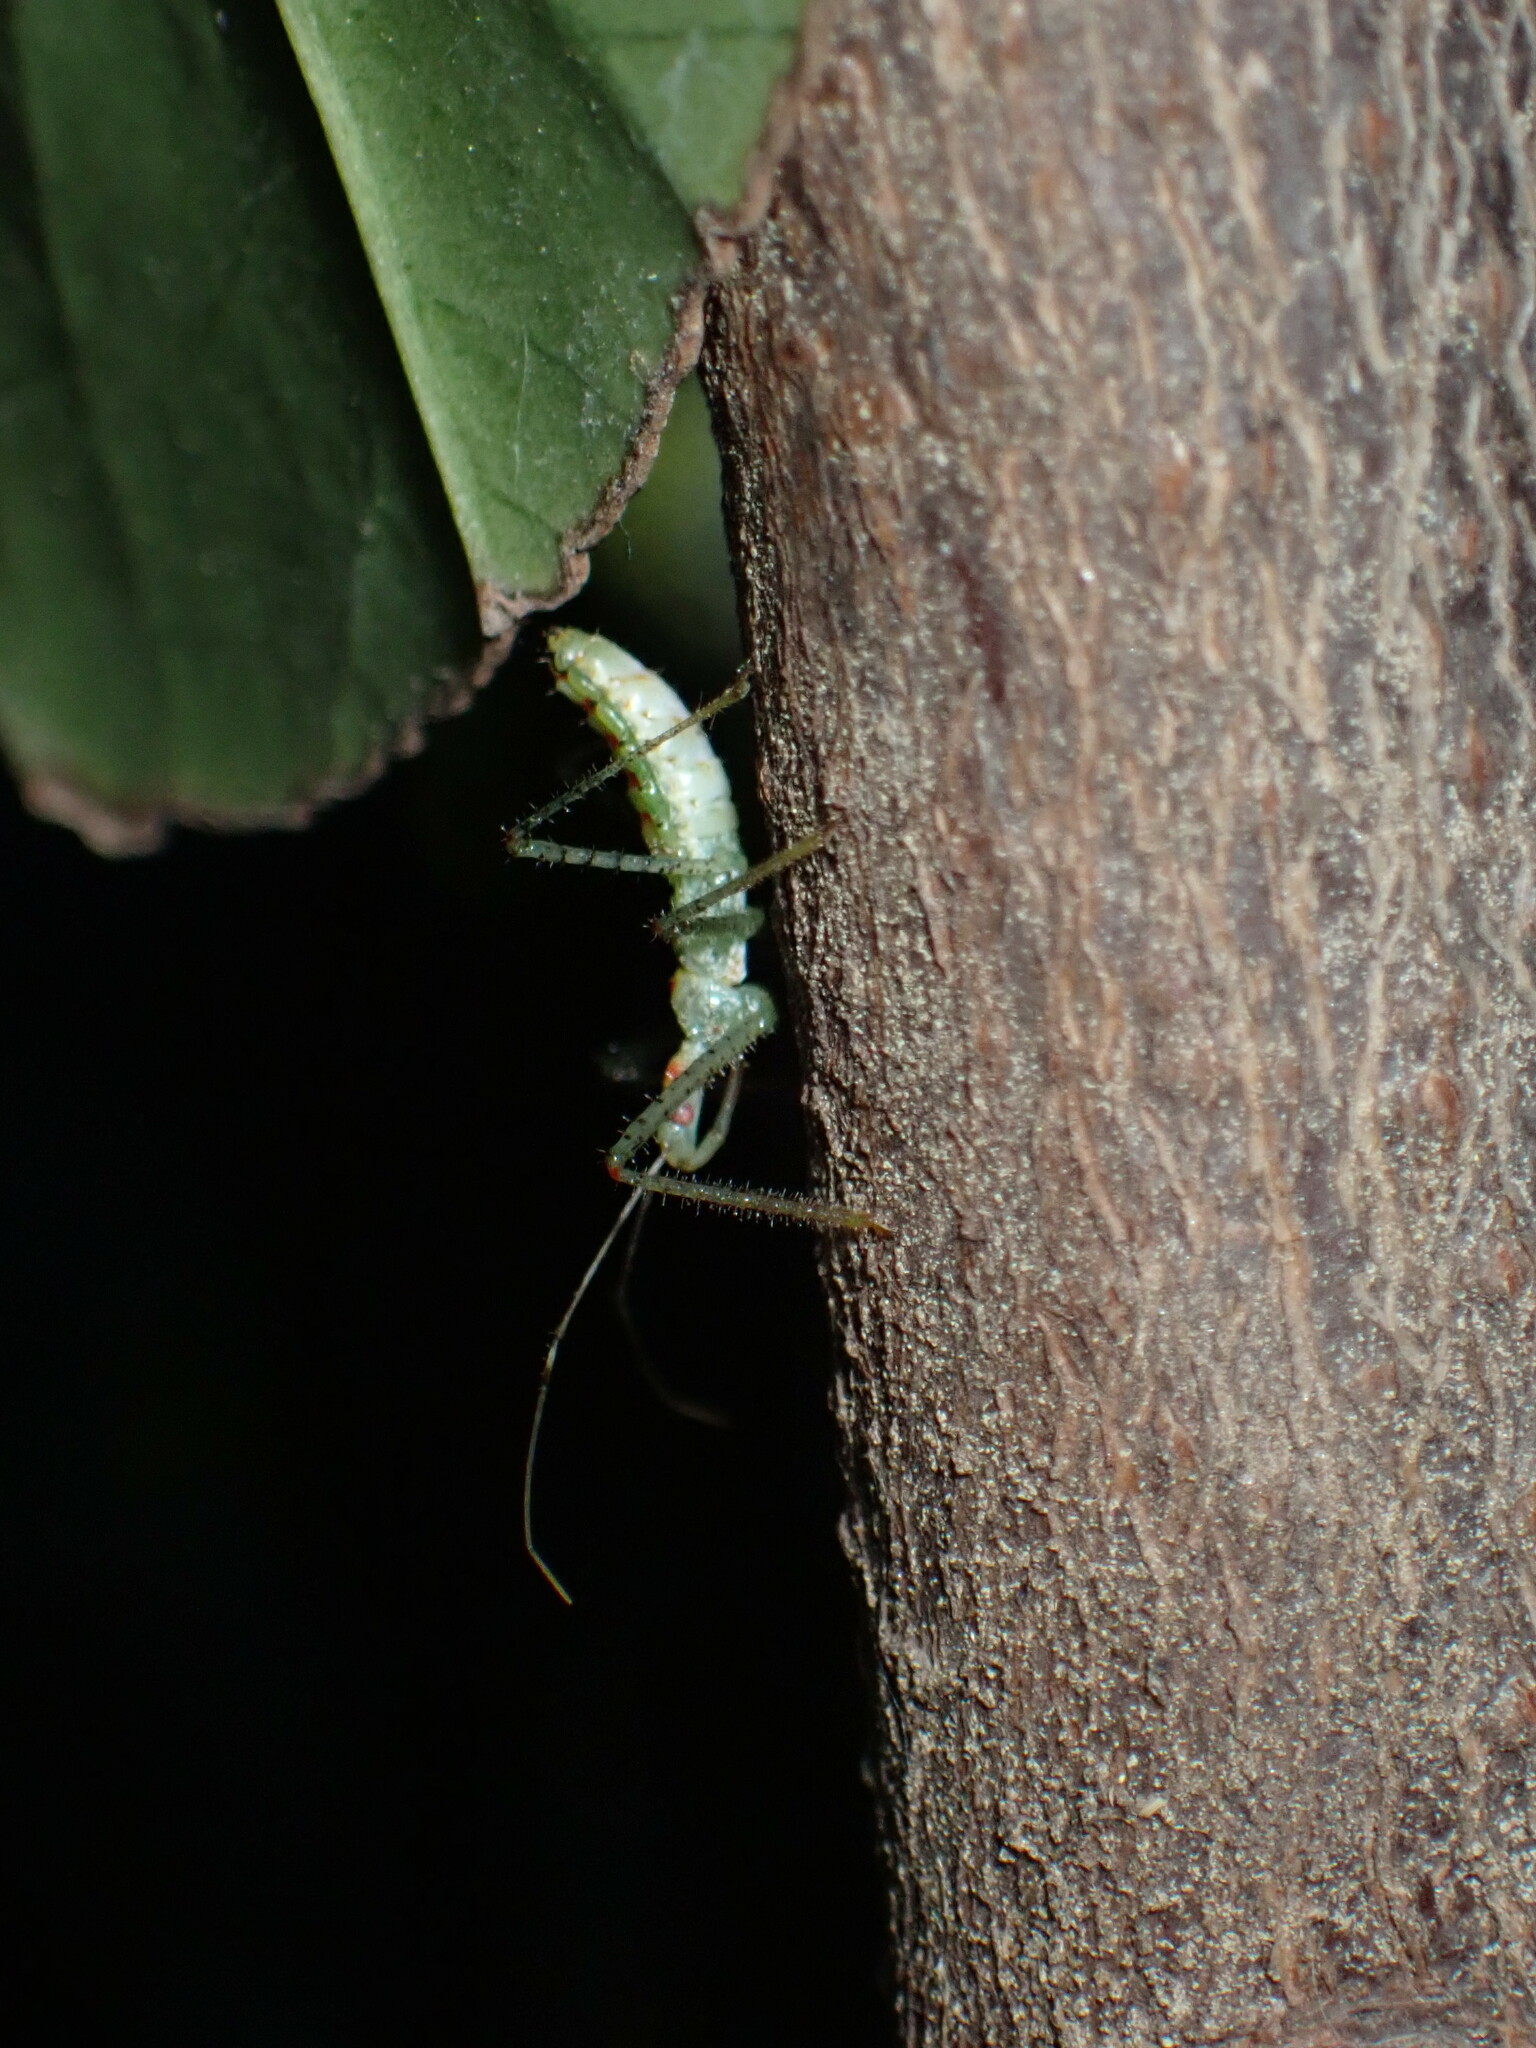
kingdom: Animalia
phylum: Arthropoda
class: Insecta
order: Hemiptera
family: Reduviidae
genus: Zelus
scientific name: Zelus renardii
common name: Assassin bug
